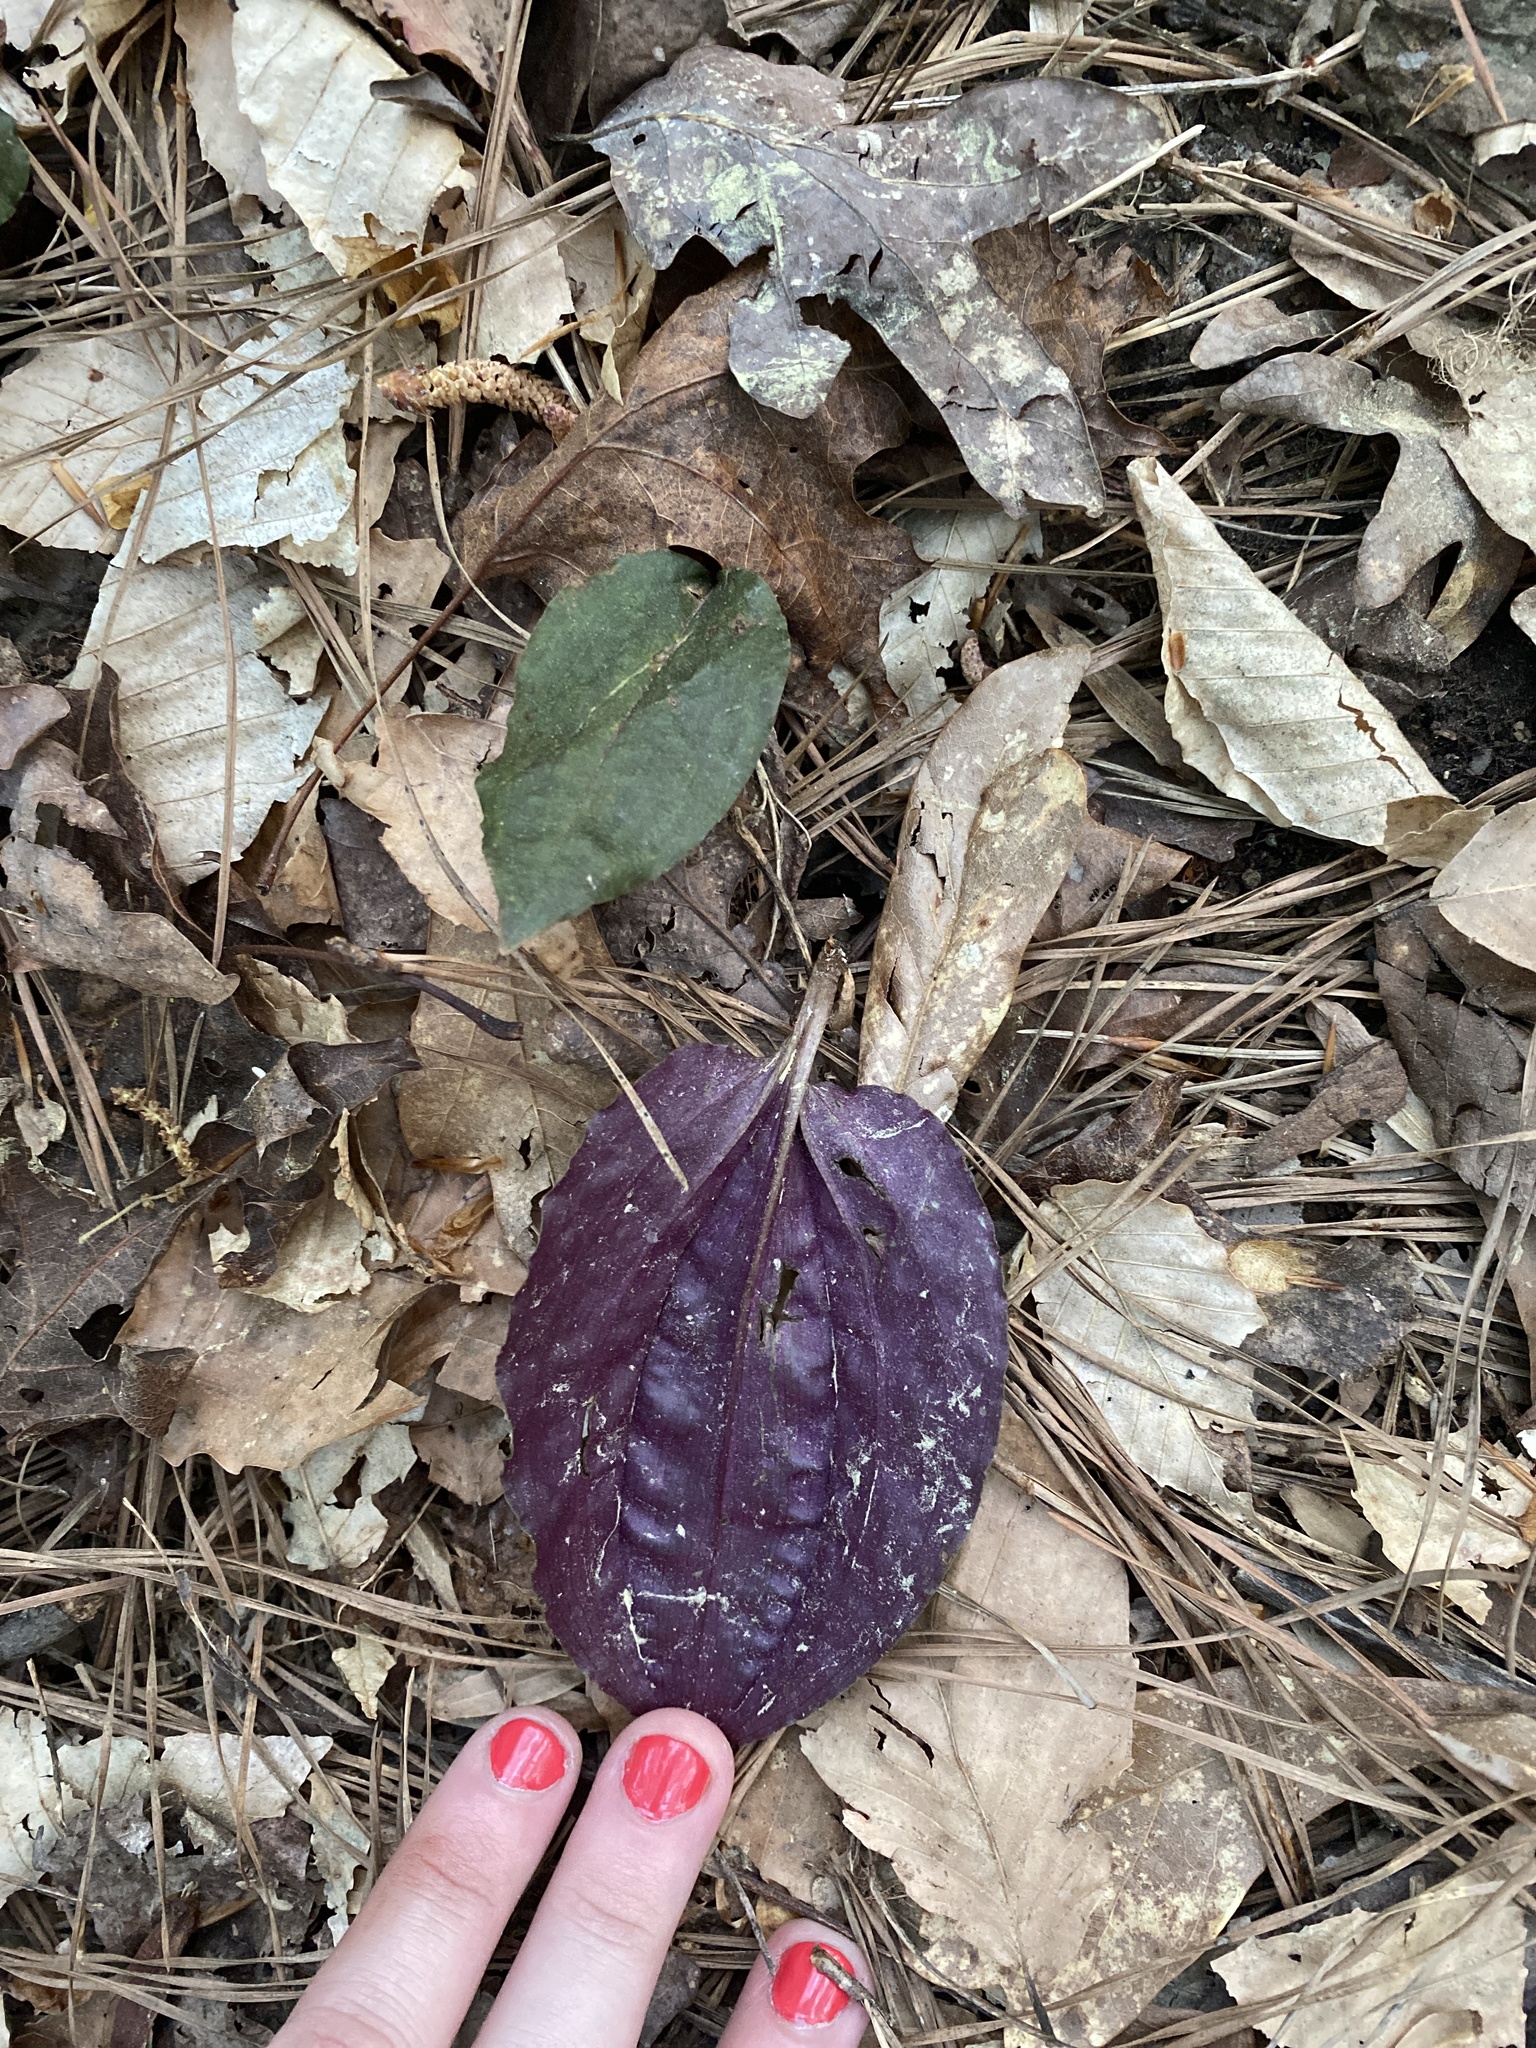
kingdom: Plantae
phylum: Tracheophyta
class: Liliopsida
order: Asparagales
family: Orchidaceae
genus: Tipularia
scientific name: Tipularia discolor
